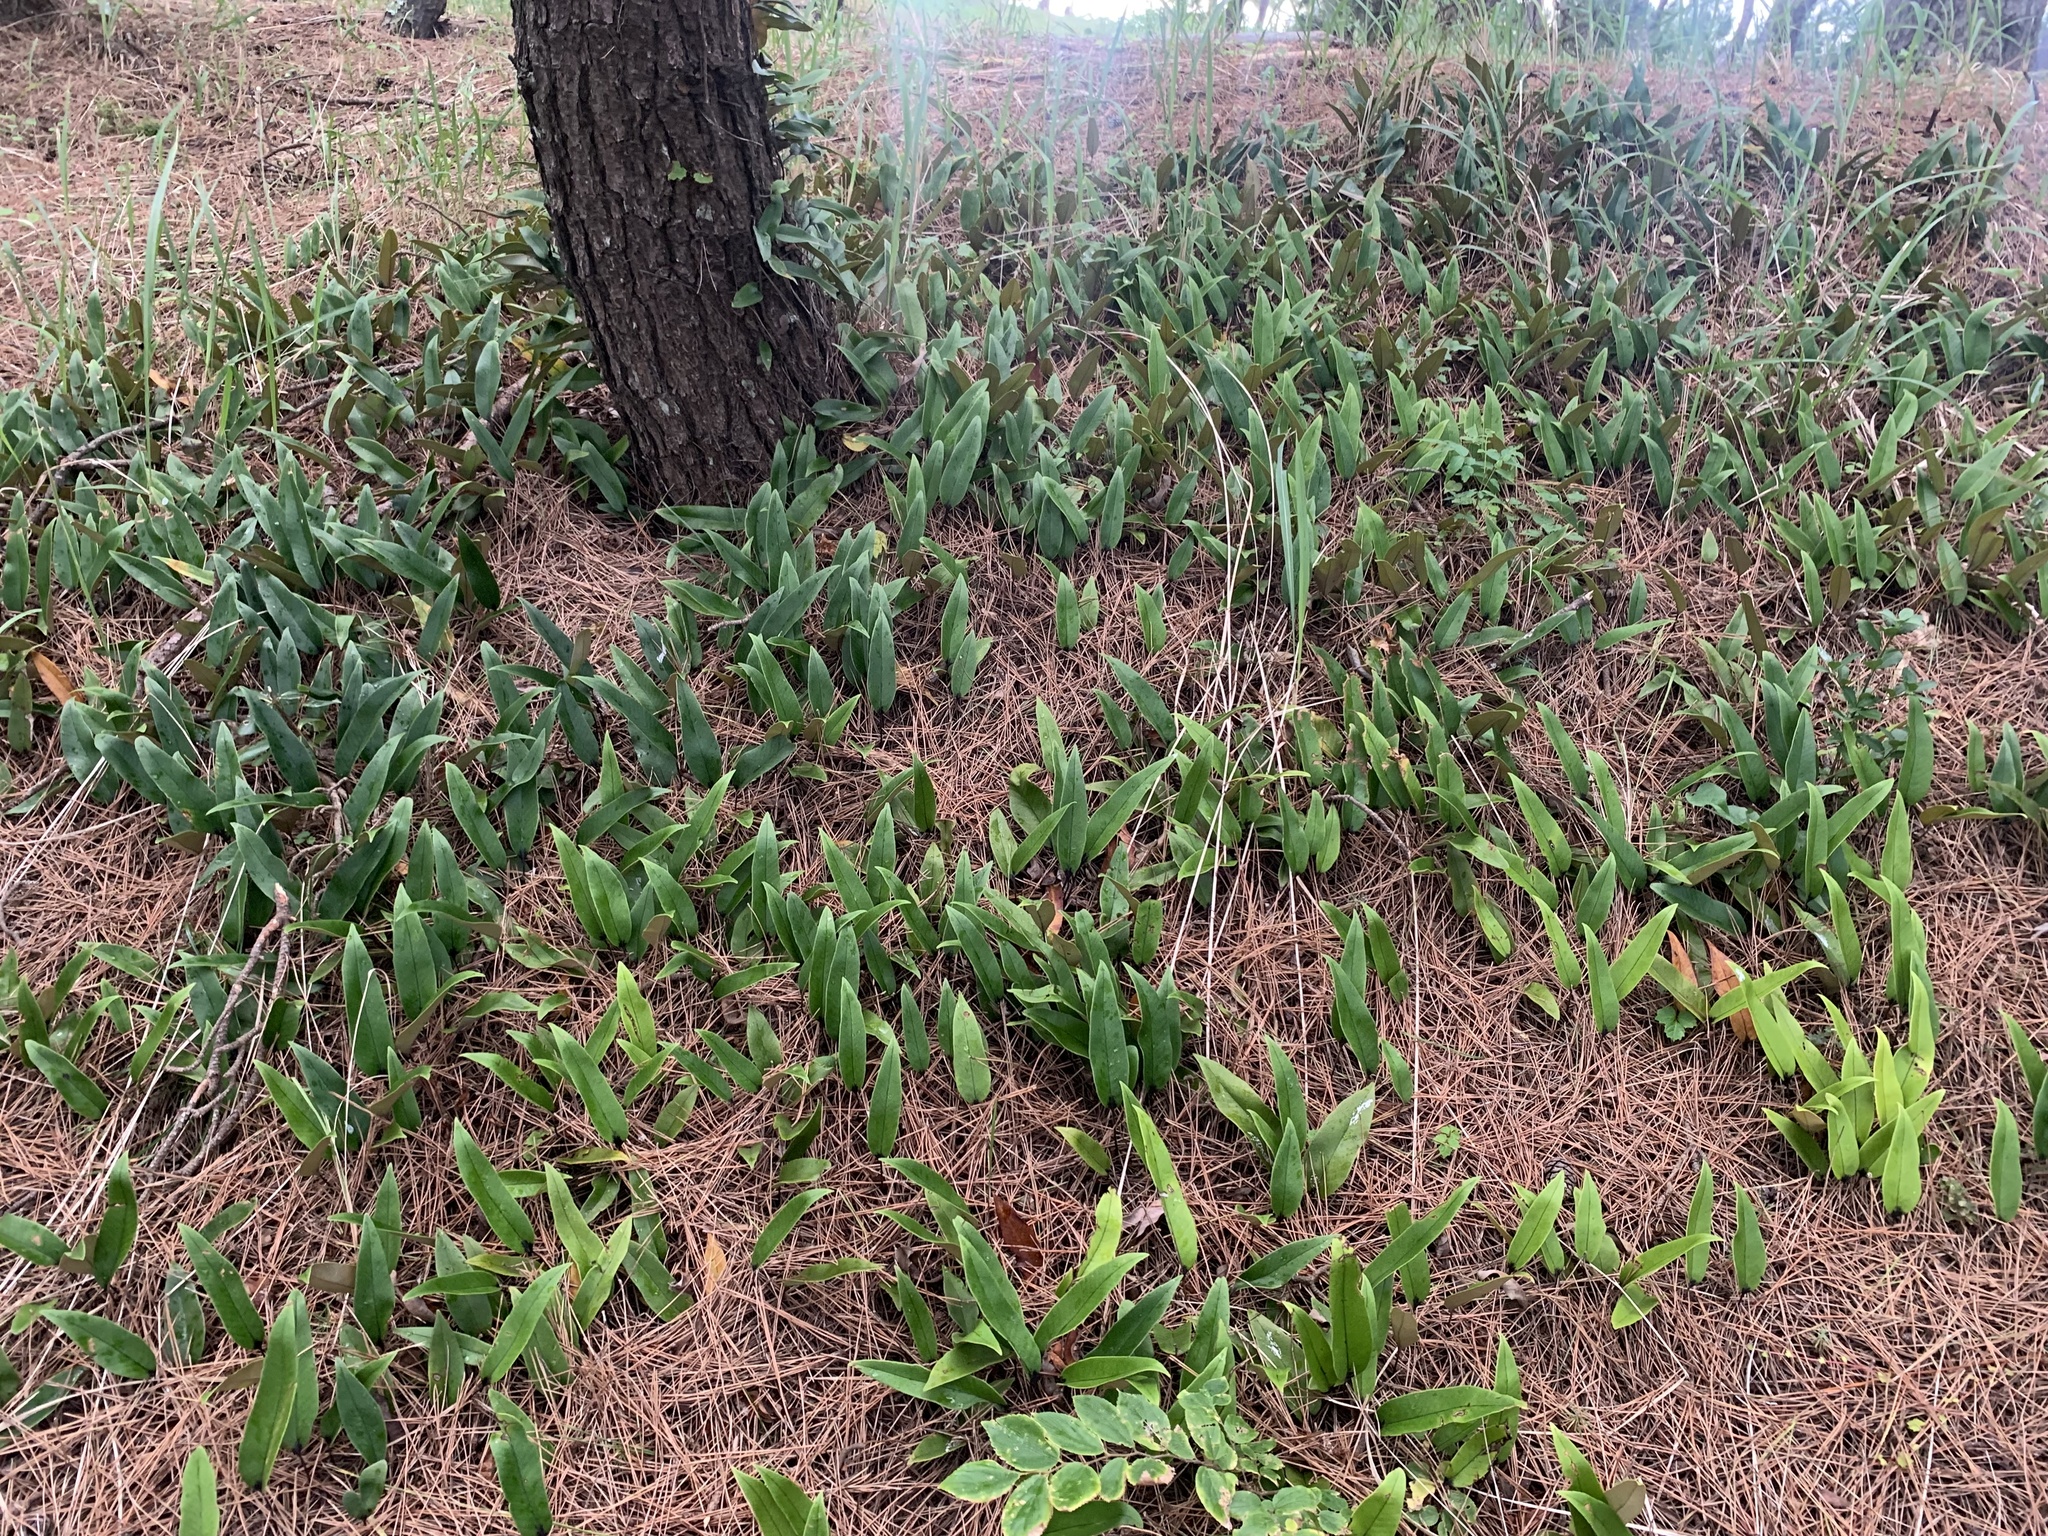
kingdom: Plantae
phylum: Tracheophyta
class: Polypodiopsida
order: Polypodiales
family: Polypodiaceae
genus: Pyrrosia
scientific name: Pyrrosia lingua
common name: Felt fern
